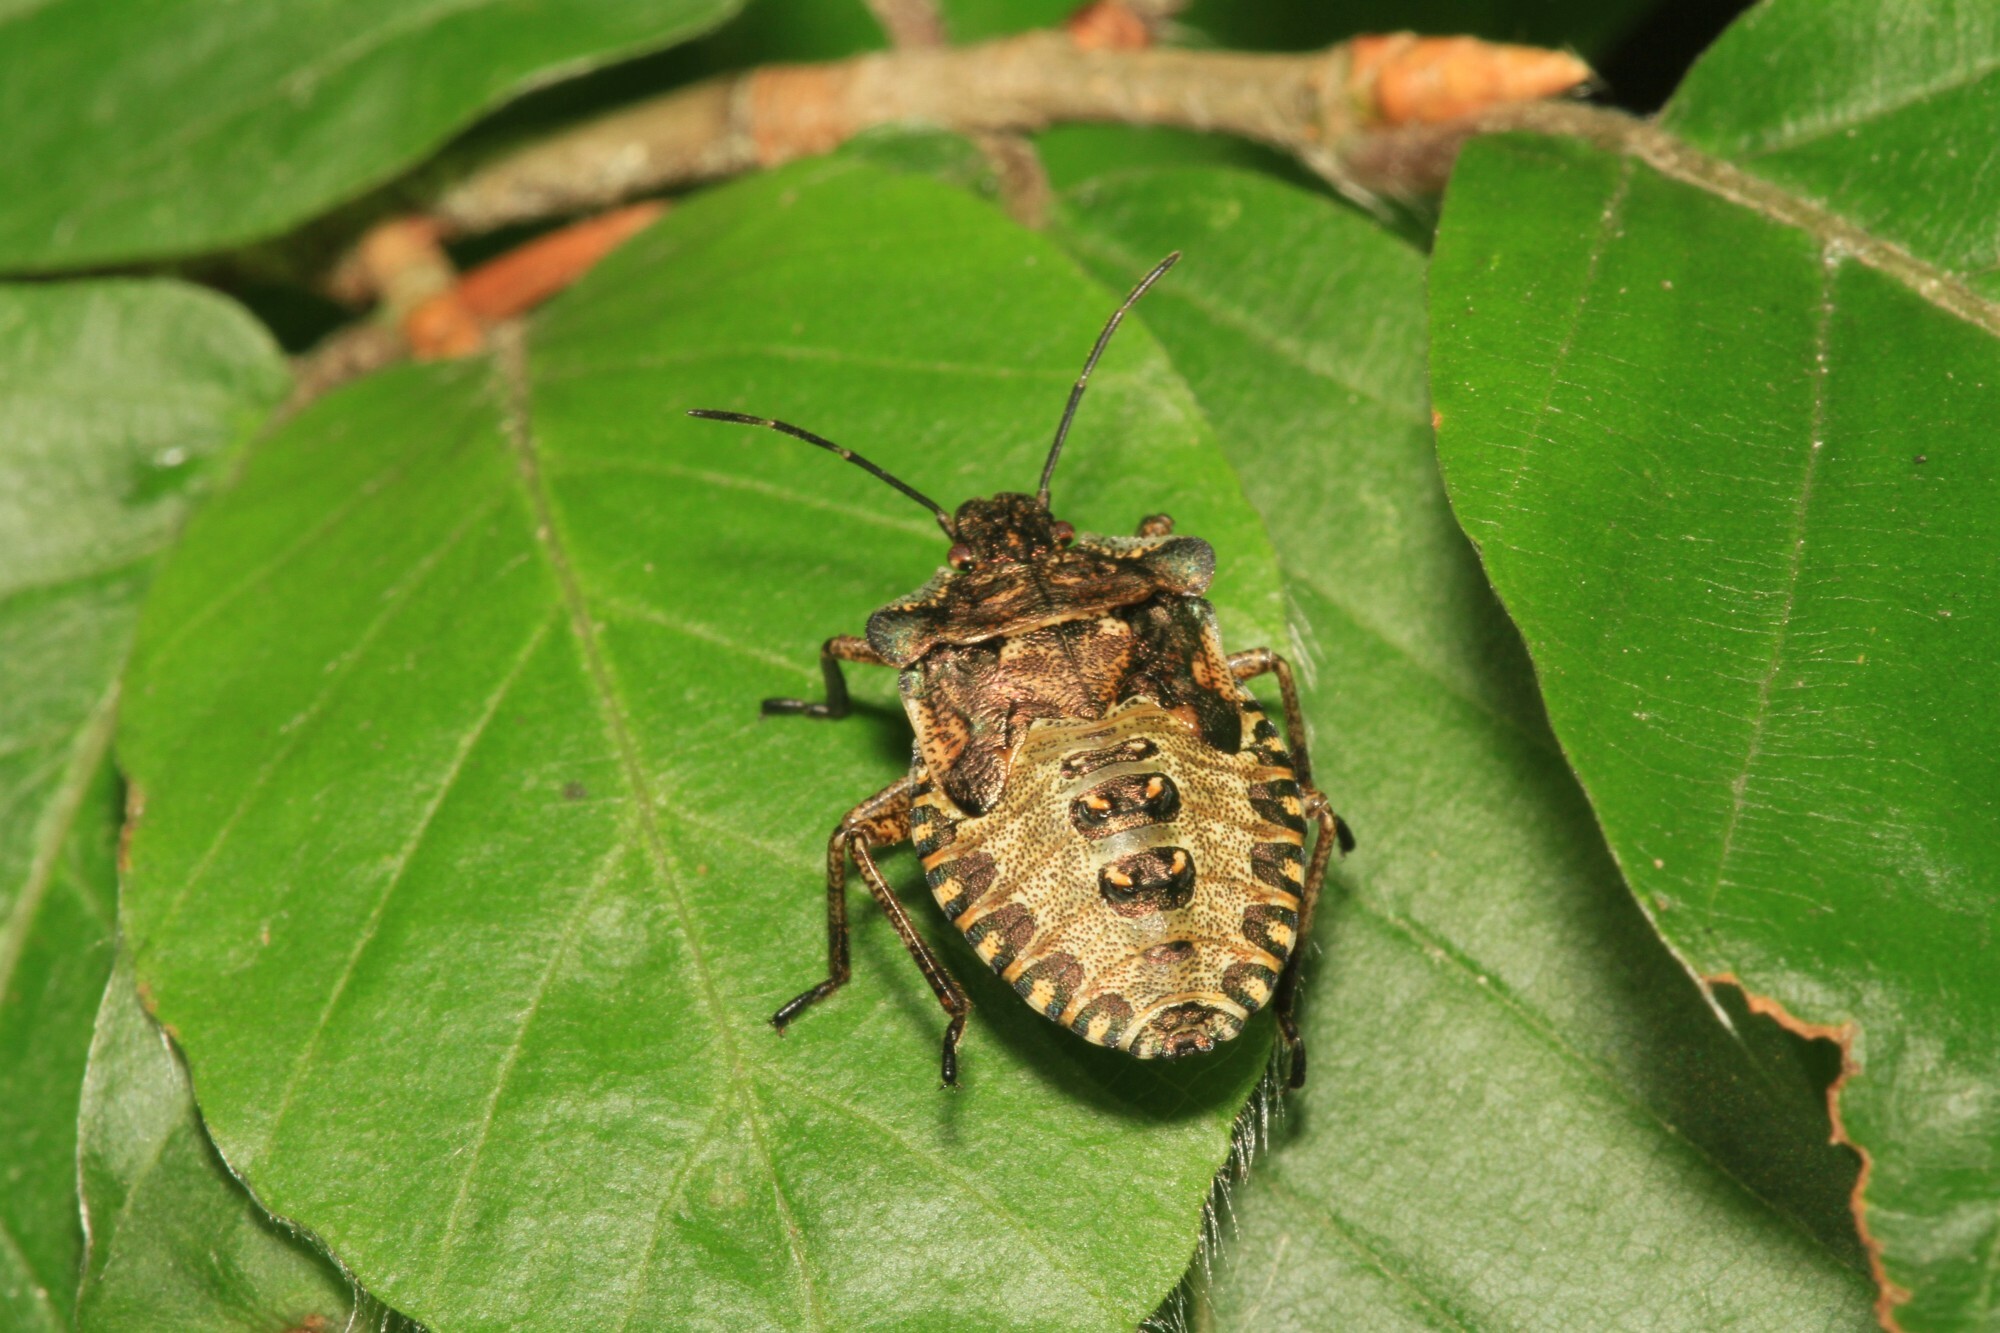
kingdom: Animalia
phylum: Arthropoda
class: Insecta
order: Hemiptera
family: Pentatomidae
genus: Pentatoma
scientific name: Pentatoma rufipes
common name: Forest bug
